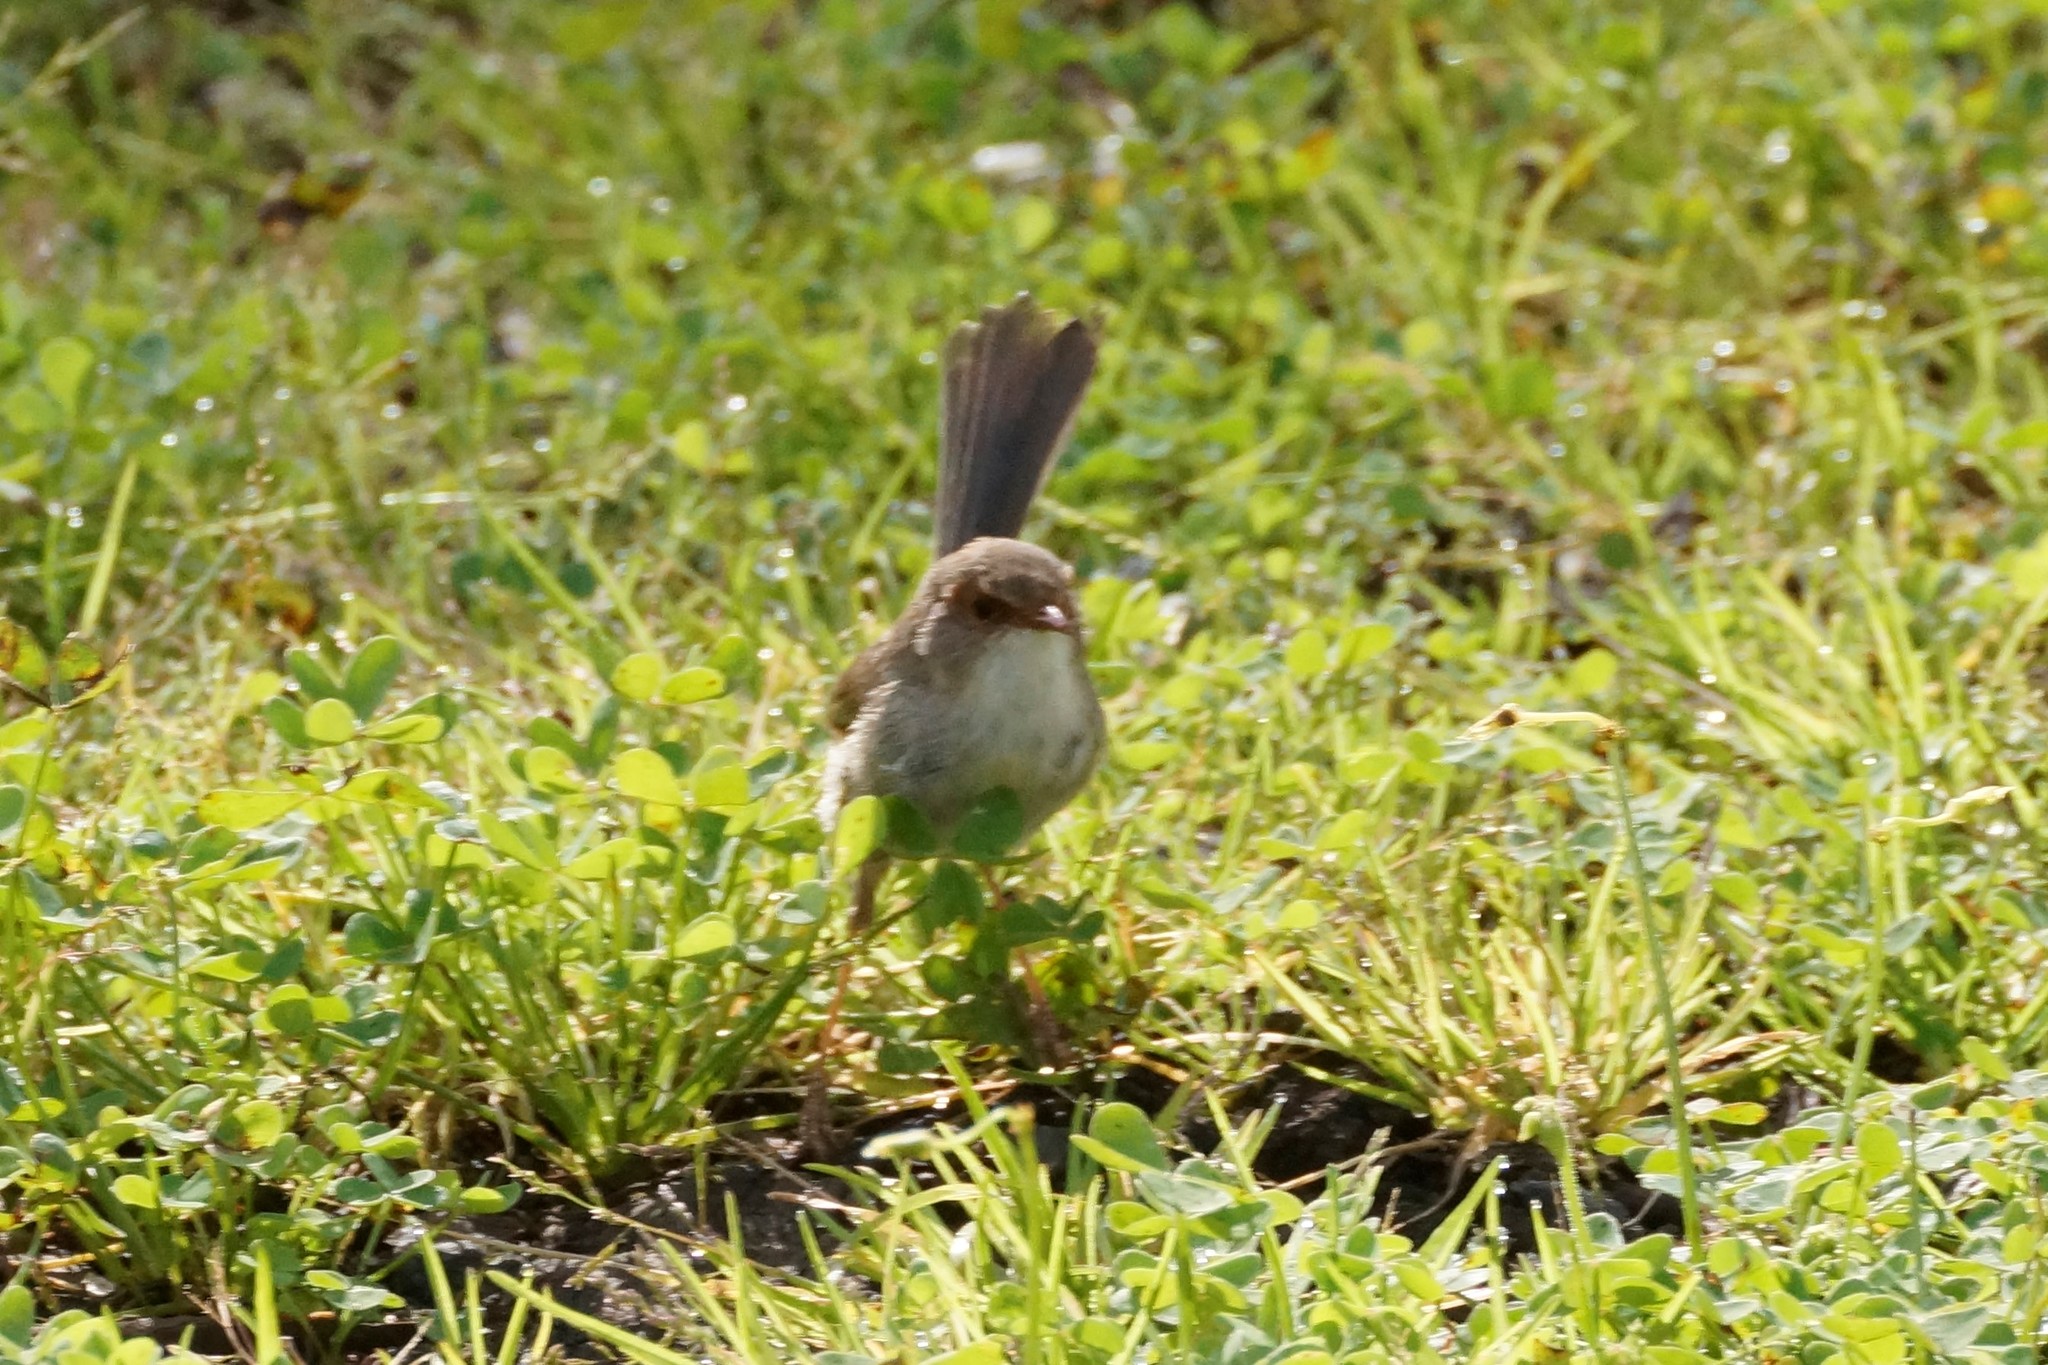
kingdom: Animalia
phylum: Chordata
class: Aves
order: Passeriformes
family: Maluridae
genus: Malurus
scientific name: Malurus cyaneus
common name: Superb fairywren
